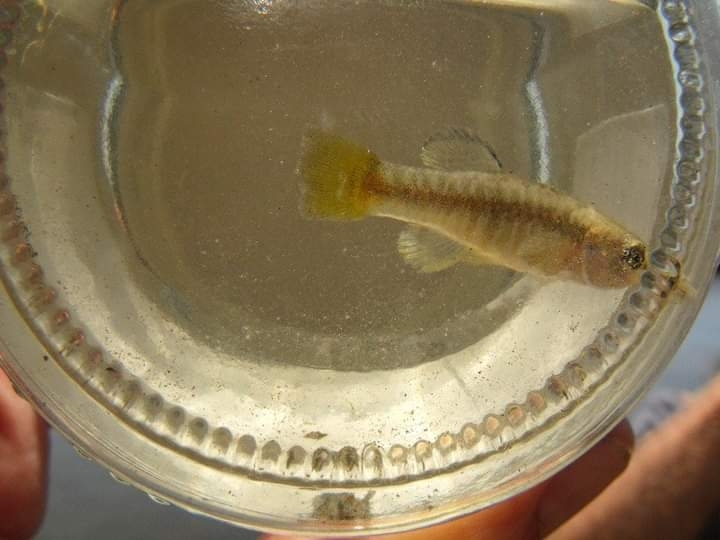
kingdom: Animalia
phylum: Chordata
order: Cyprinodontiformes
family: Cyprinodontidae
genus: Aphanius
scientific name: Aphanius fasciatus
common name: Mediterranean banded killifish
